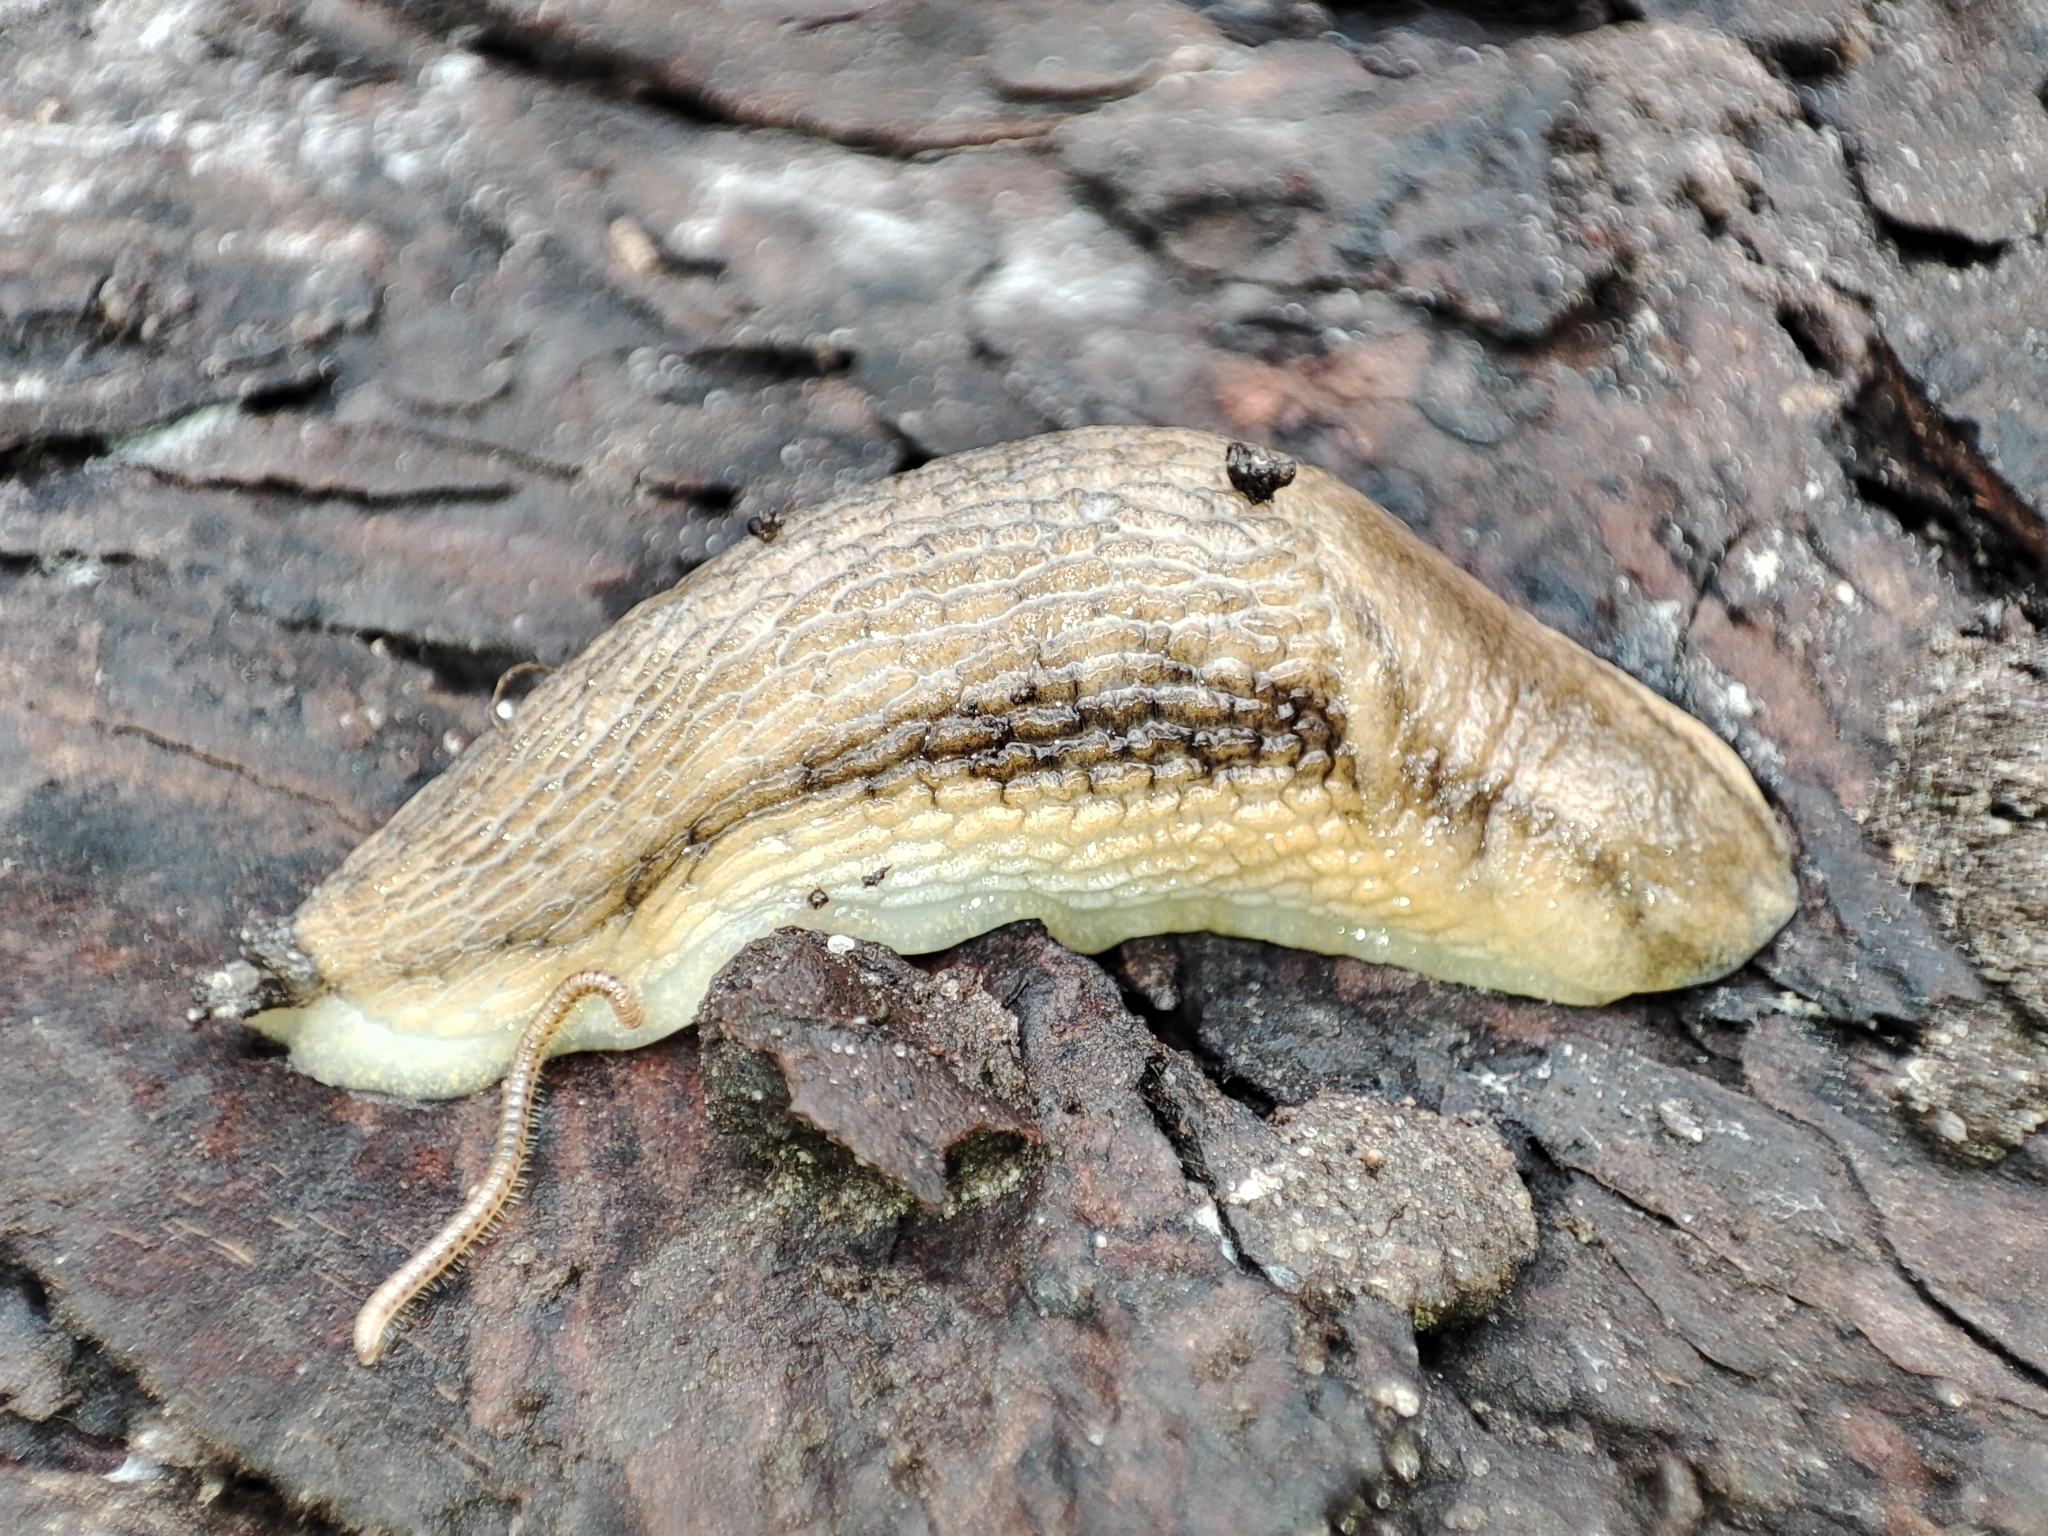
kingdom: Animalia
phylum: Mollusca
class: Gastropoda
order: Stylommatophora
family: Arionidae
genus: Arion
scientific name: Arion fasciatus
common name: Orange-banded arion
